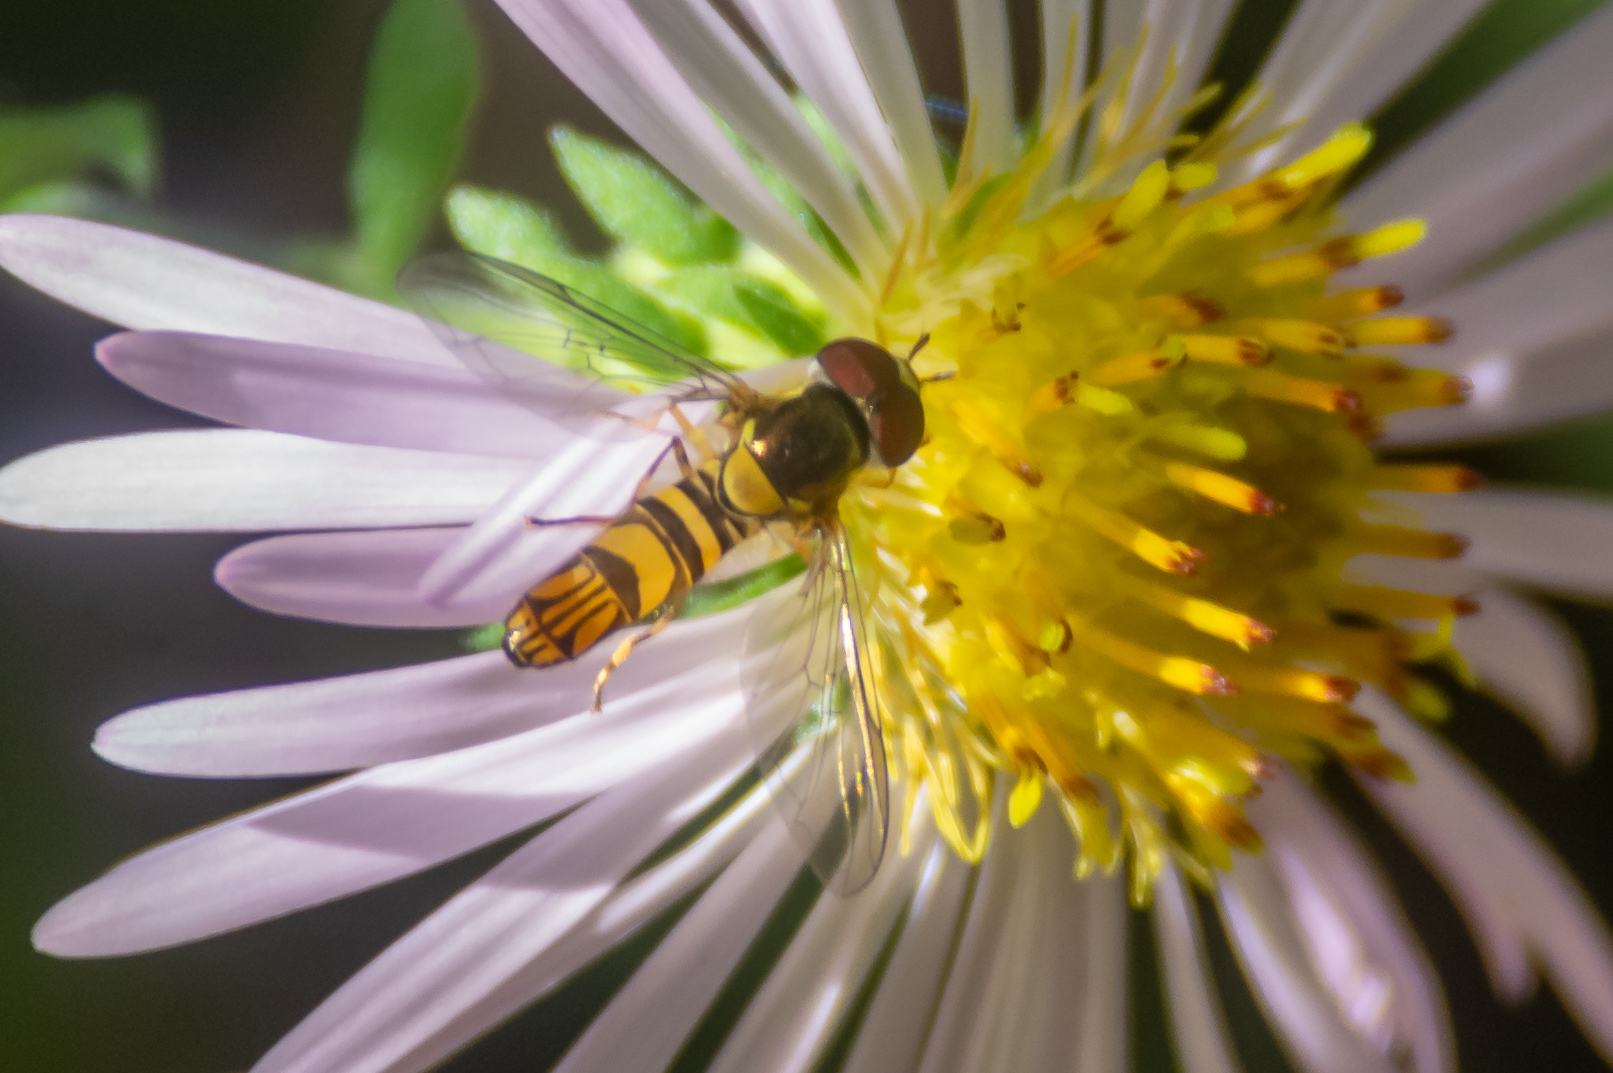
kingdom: Animalia
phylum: Arthropoda
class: Insecta
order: Diptera
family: Syrphidae
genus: Allograpta
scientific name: Allograpta obliqua
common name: Common oblique syrphid
